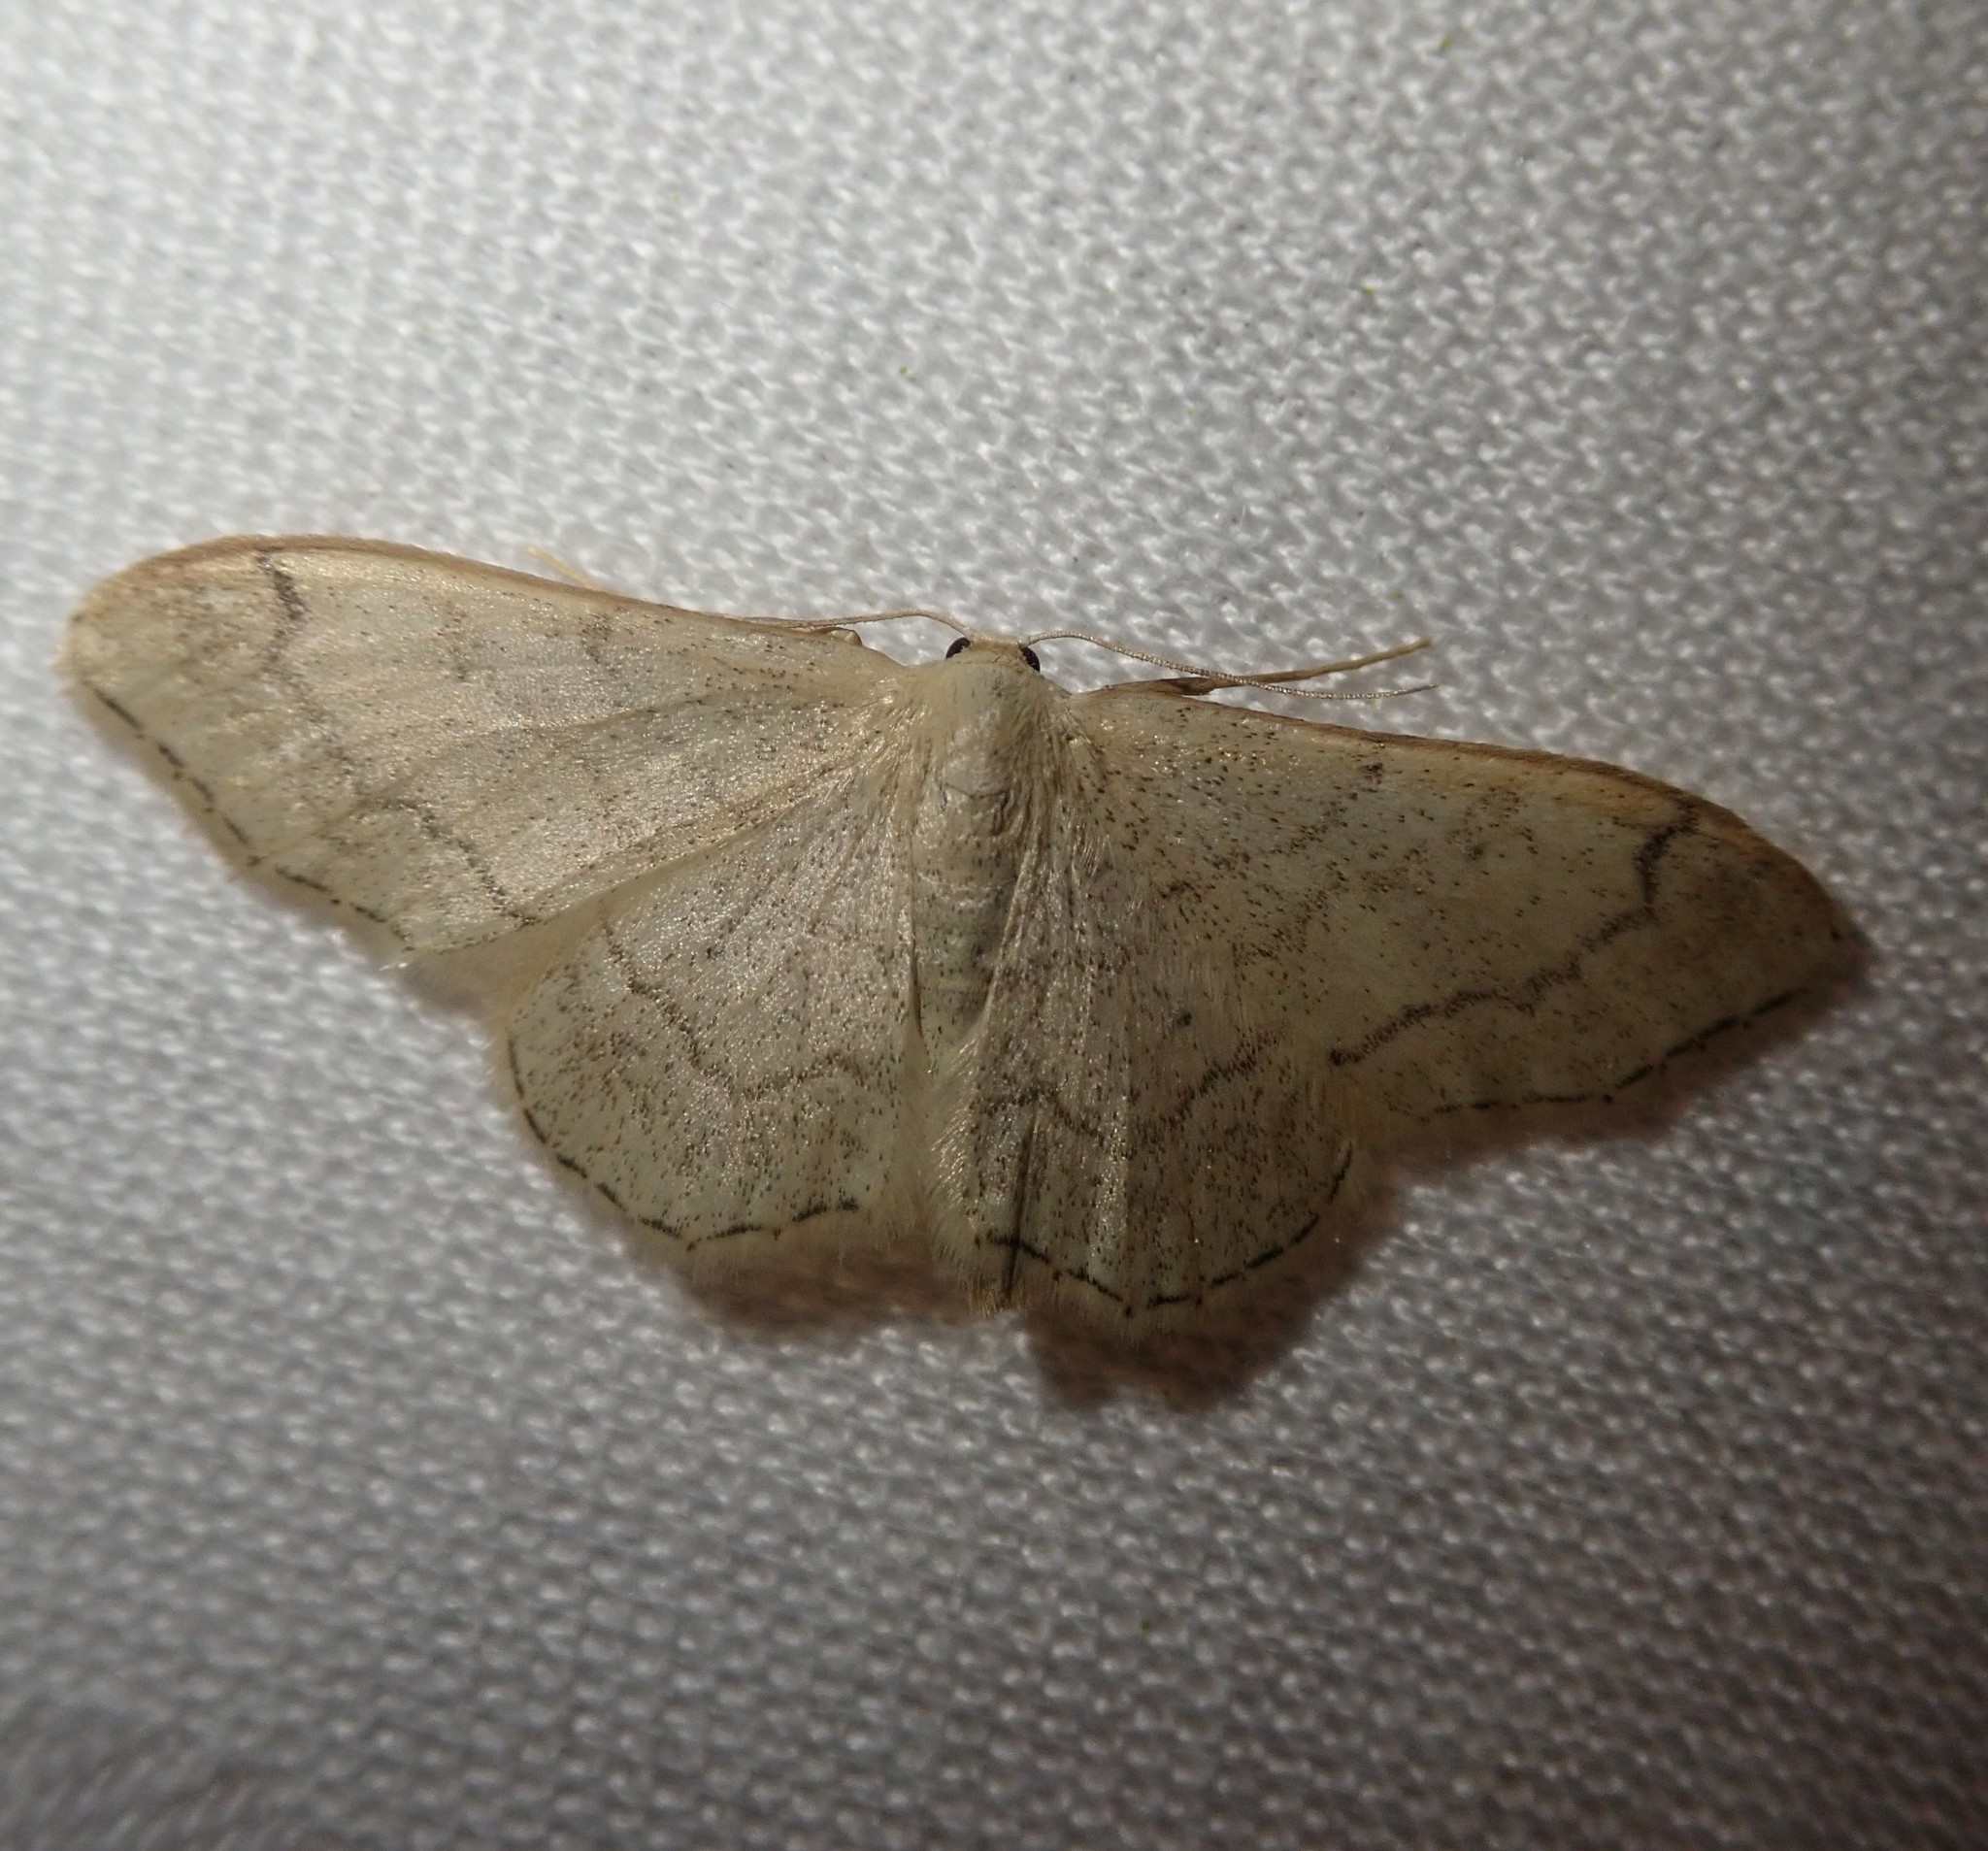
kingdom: Animalia
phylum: Arthropoda
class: Insecta
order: Lepidoptera
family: Geometridae
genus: Idaea
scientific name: Idaea aversata
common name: Riband wave
